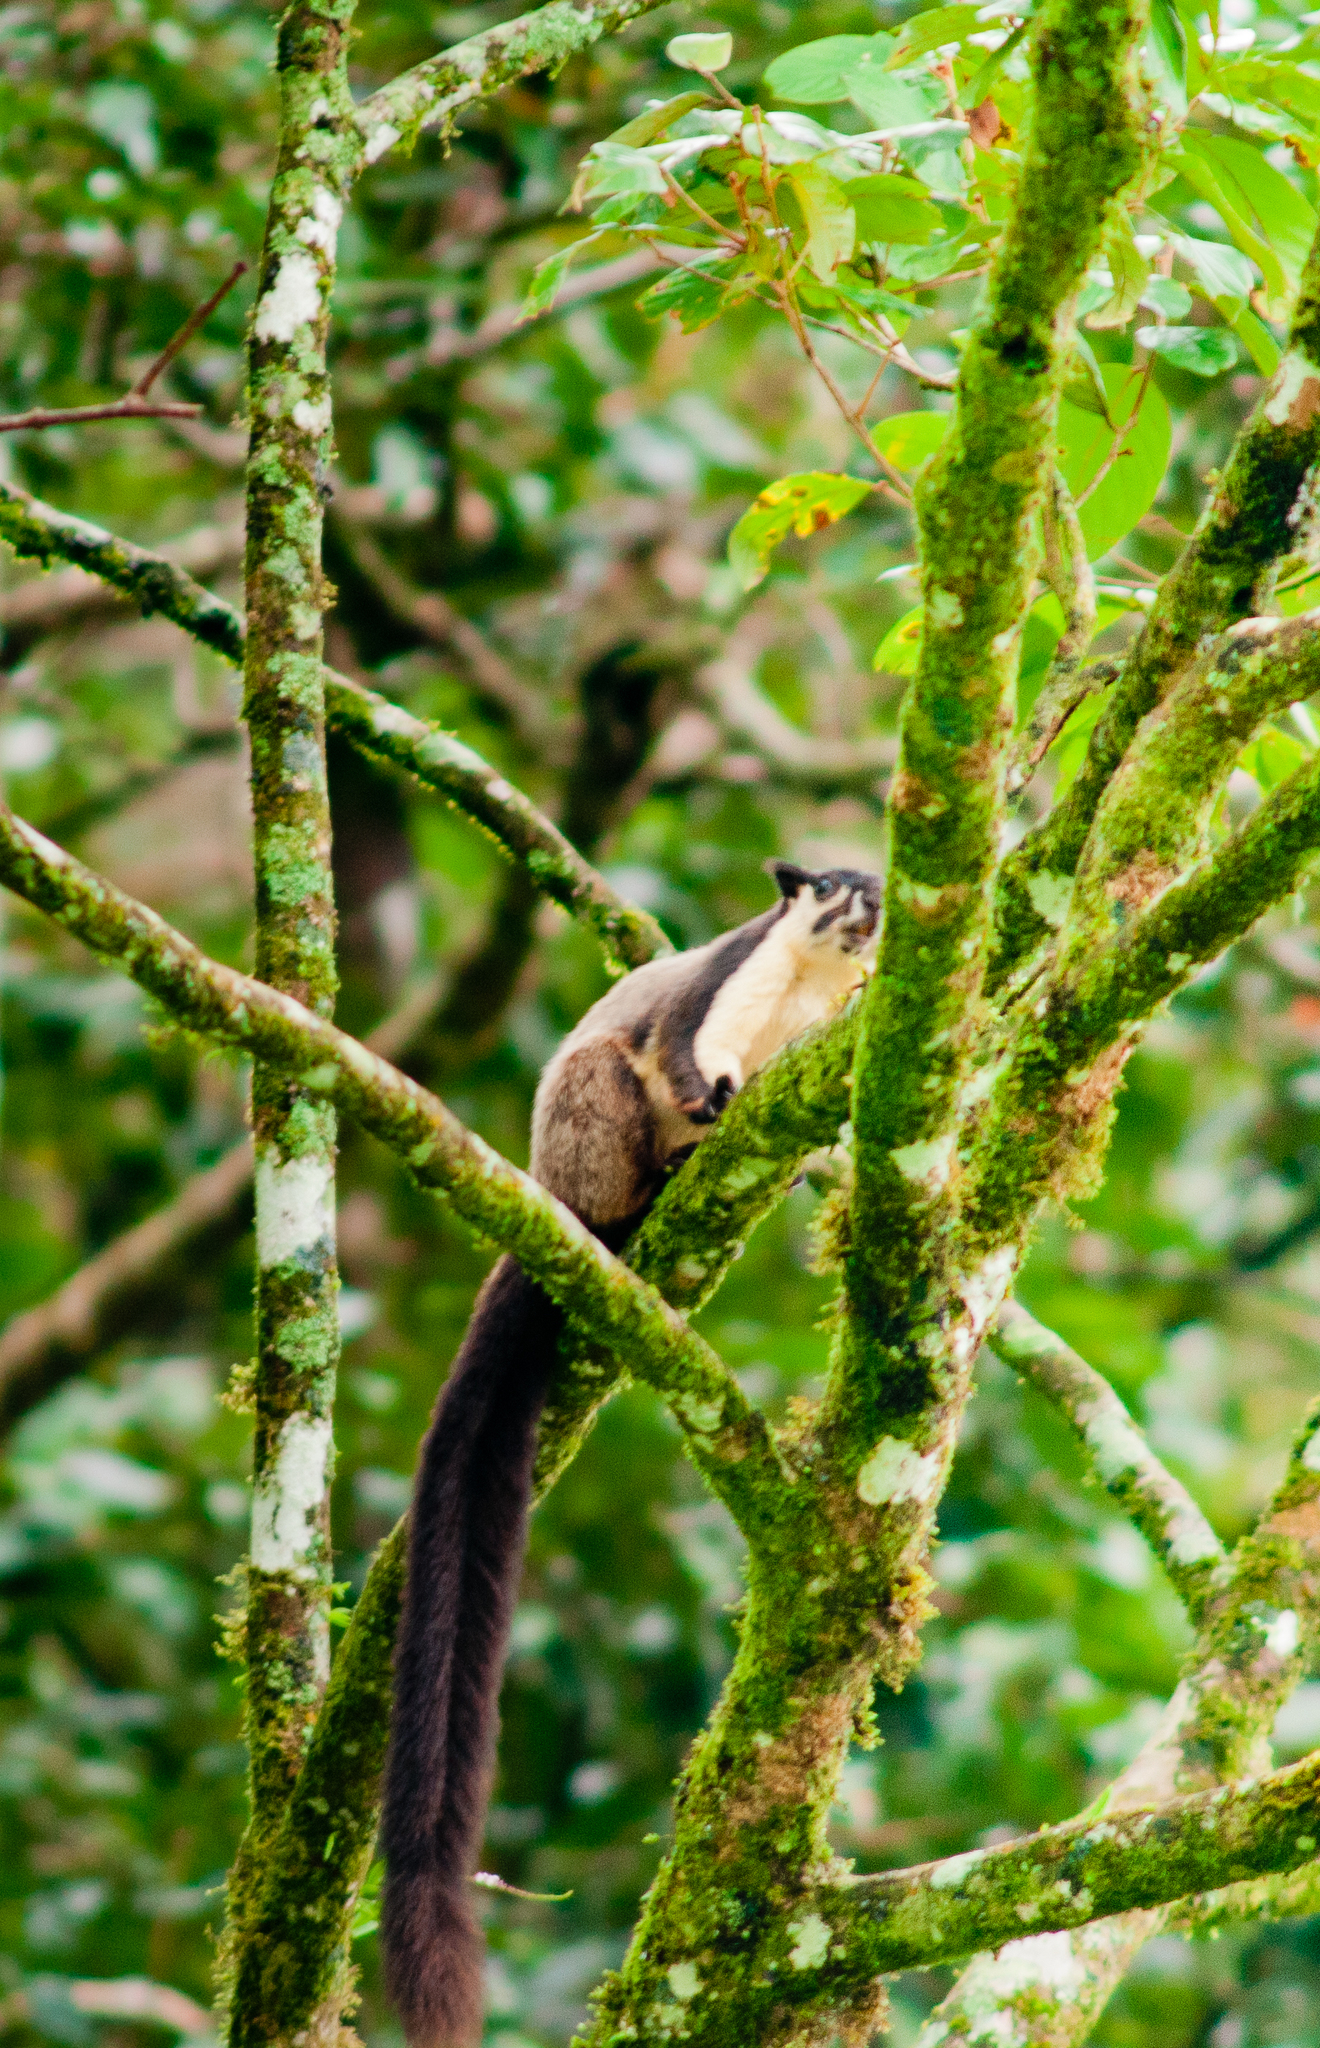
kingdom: Animalia
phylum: Chordata
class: Mammalia
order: Rodentia
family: Sciuridae
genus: Ratufa
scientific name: Ratufa bicolor
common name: Black giant squirrel
